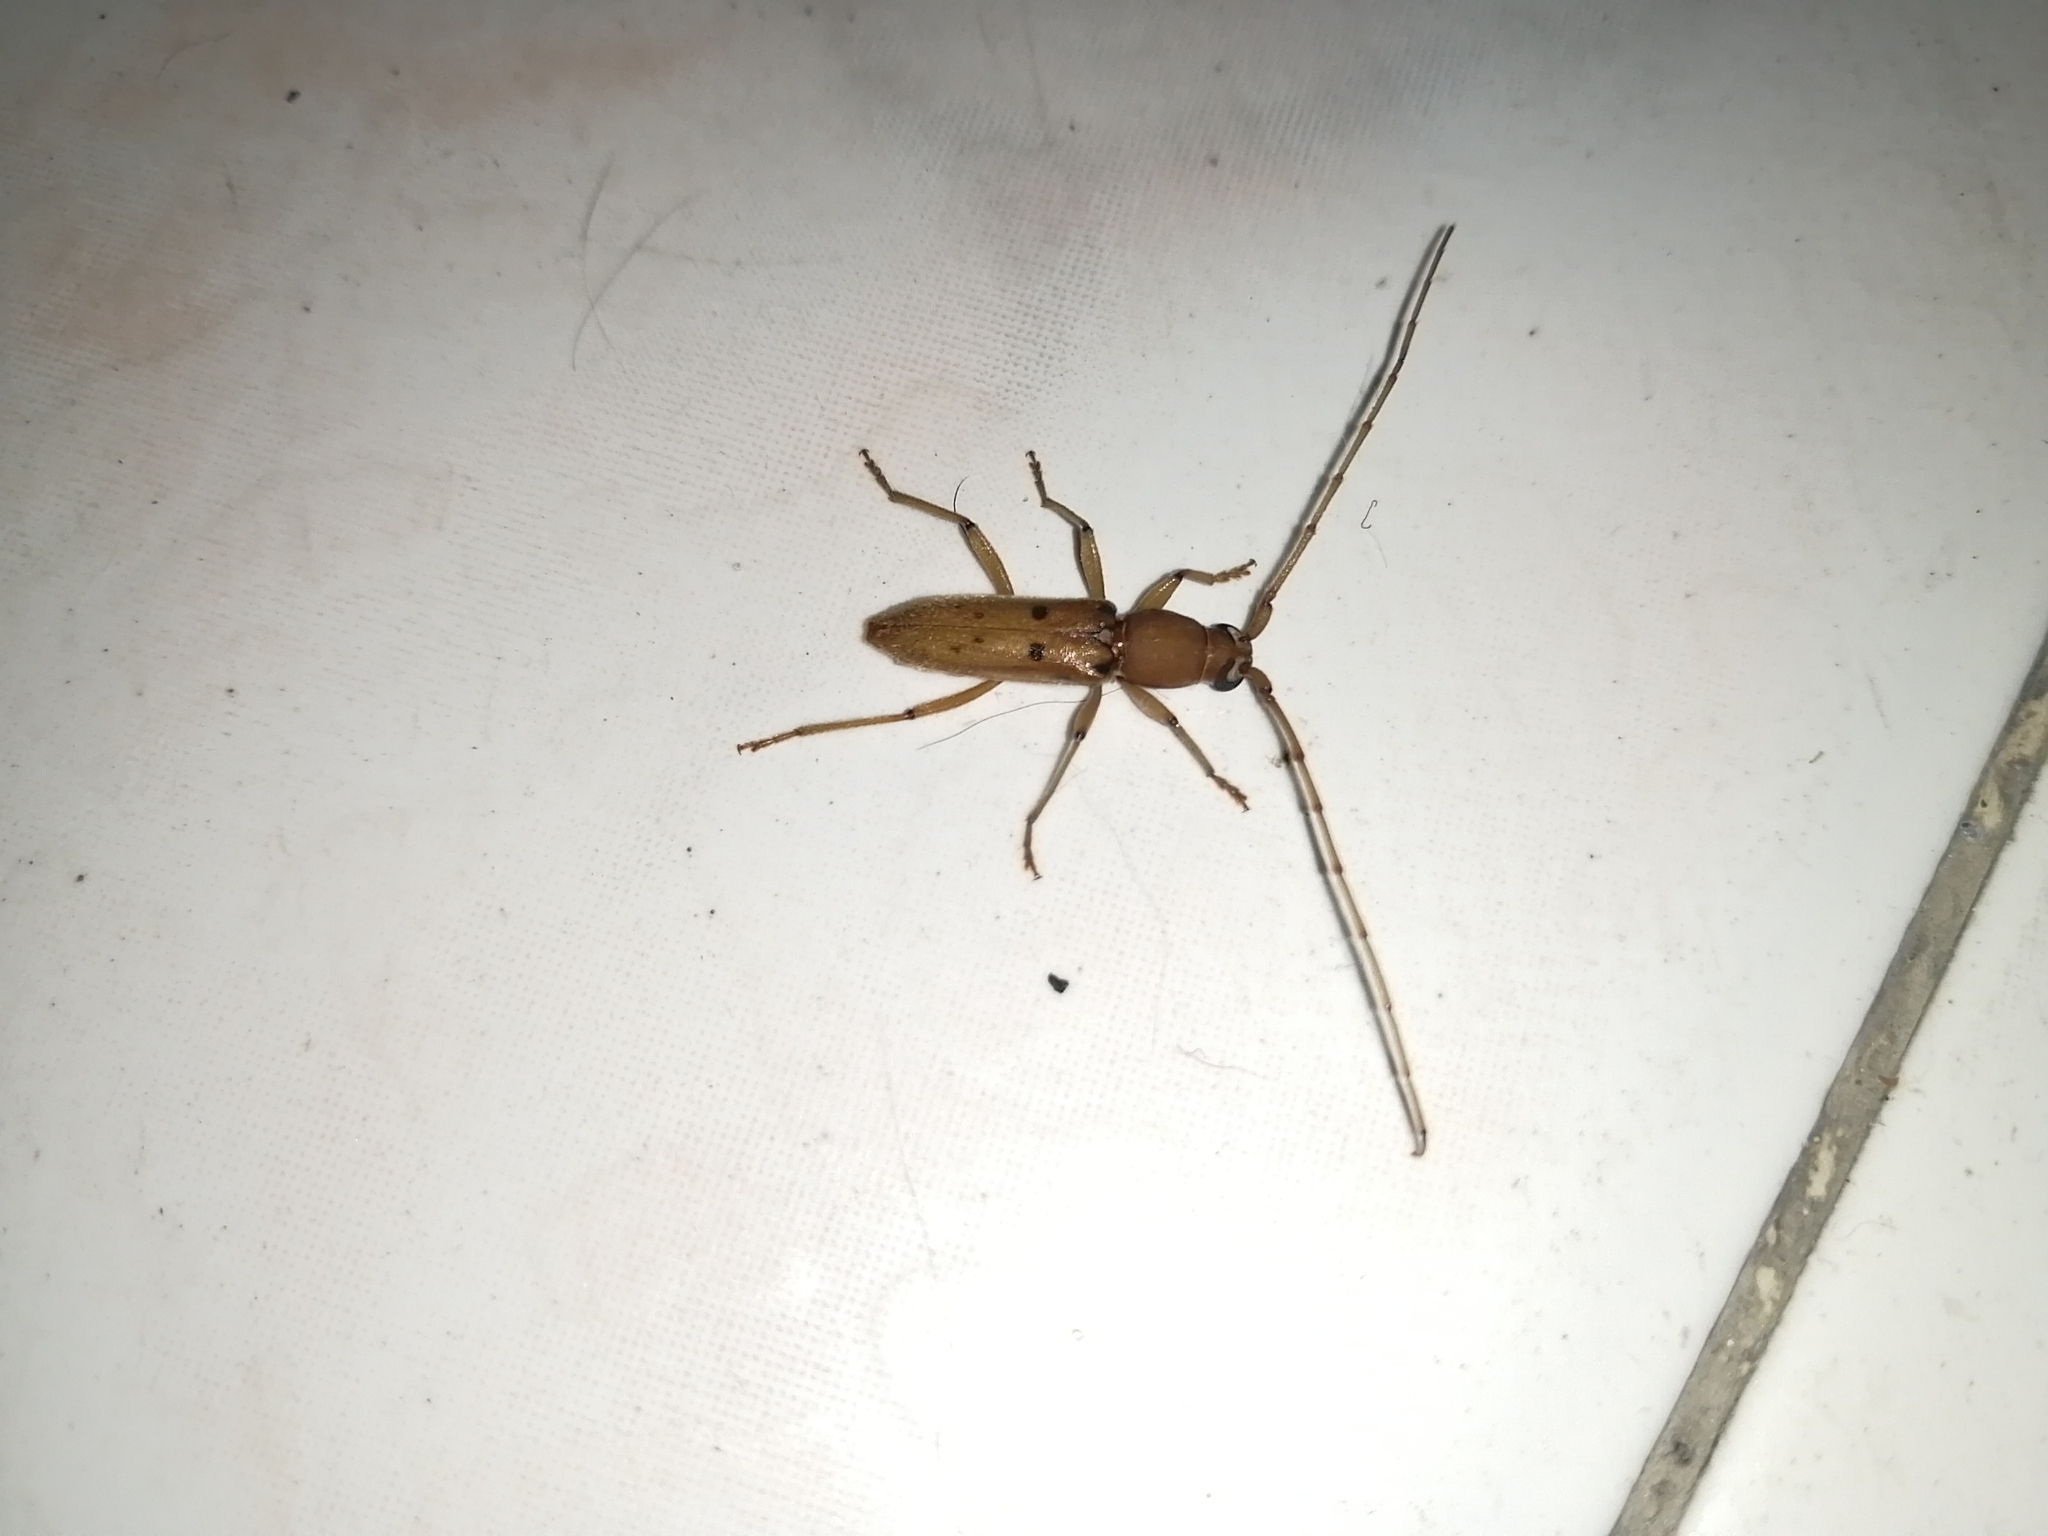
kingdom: Animalia
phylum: Arthropoda
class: Insecta
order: Coleoptera
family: Cerambycidae
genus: Achryson
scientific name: Achryson surinamum
